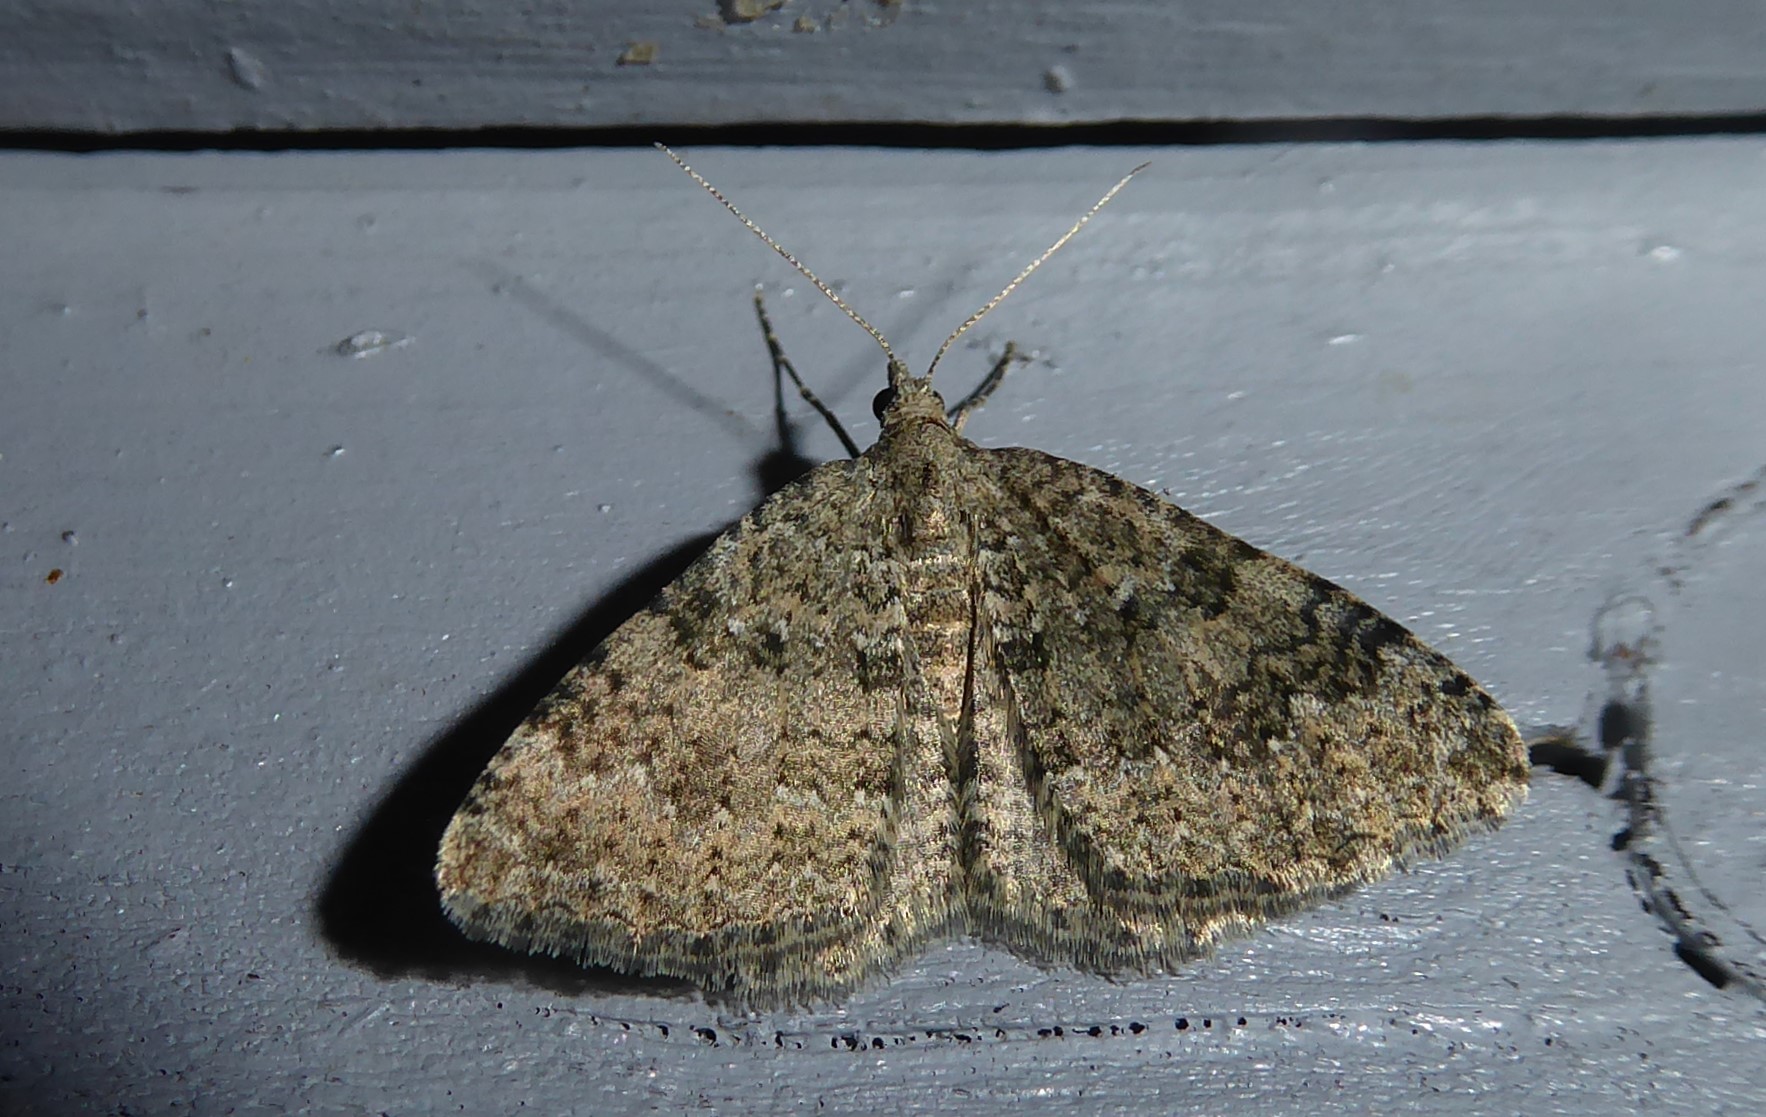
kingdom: Animalia
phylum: Arthropoda
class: Insecta
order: Lepidoptera
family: Geometridae
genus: Helastia
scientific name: Helastia corcularia
